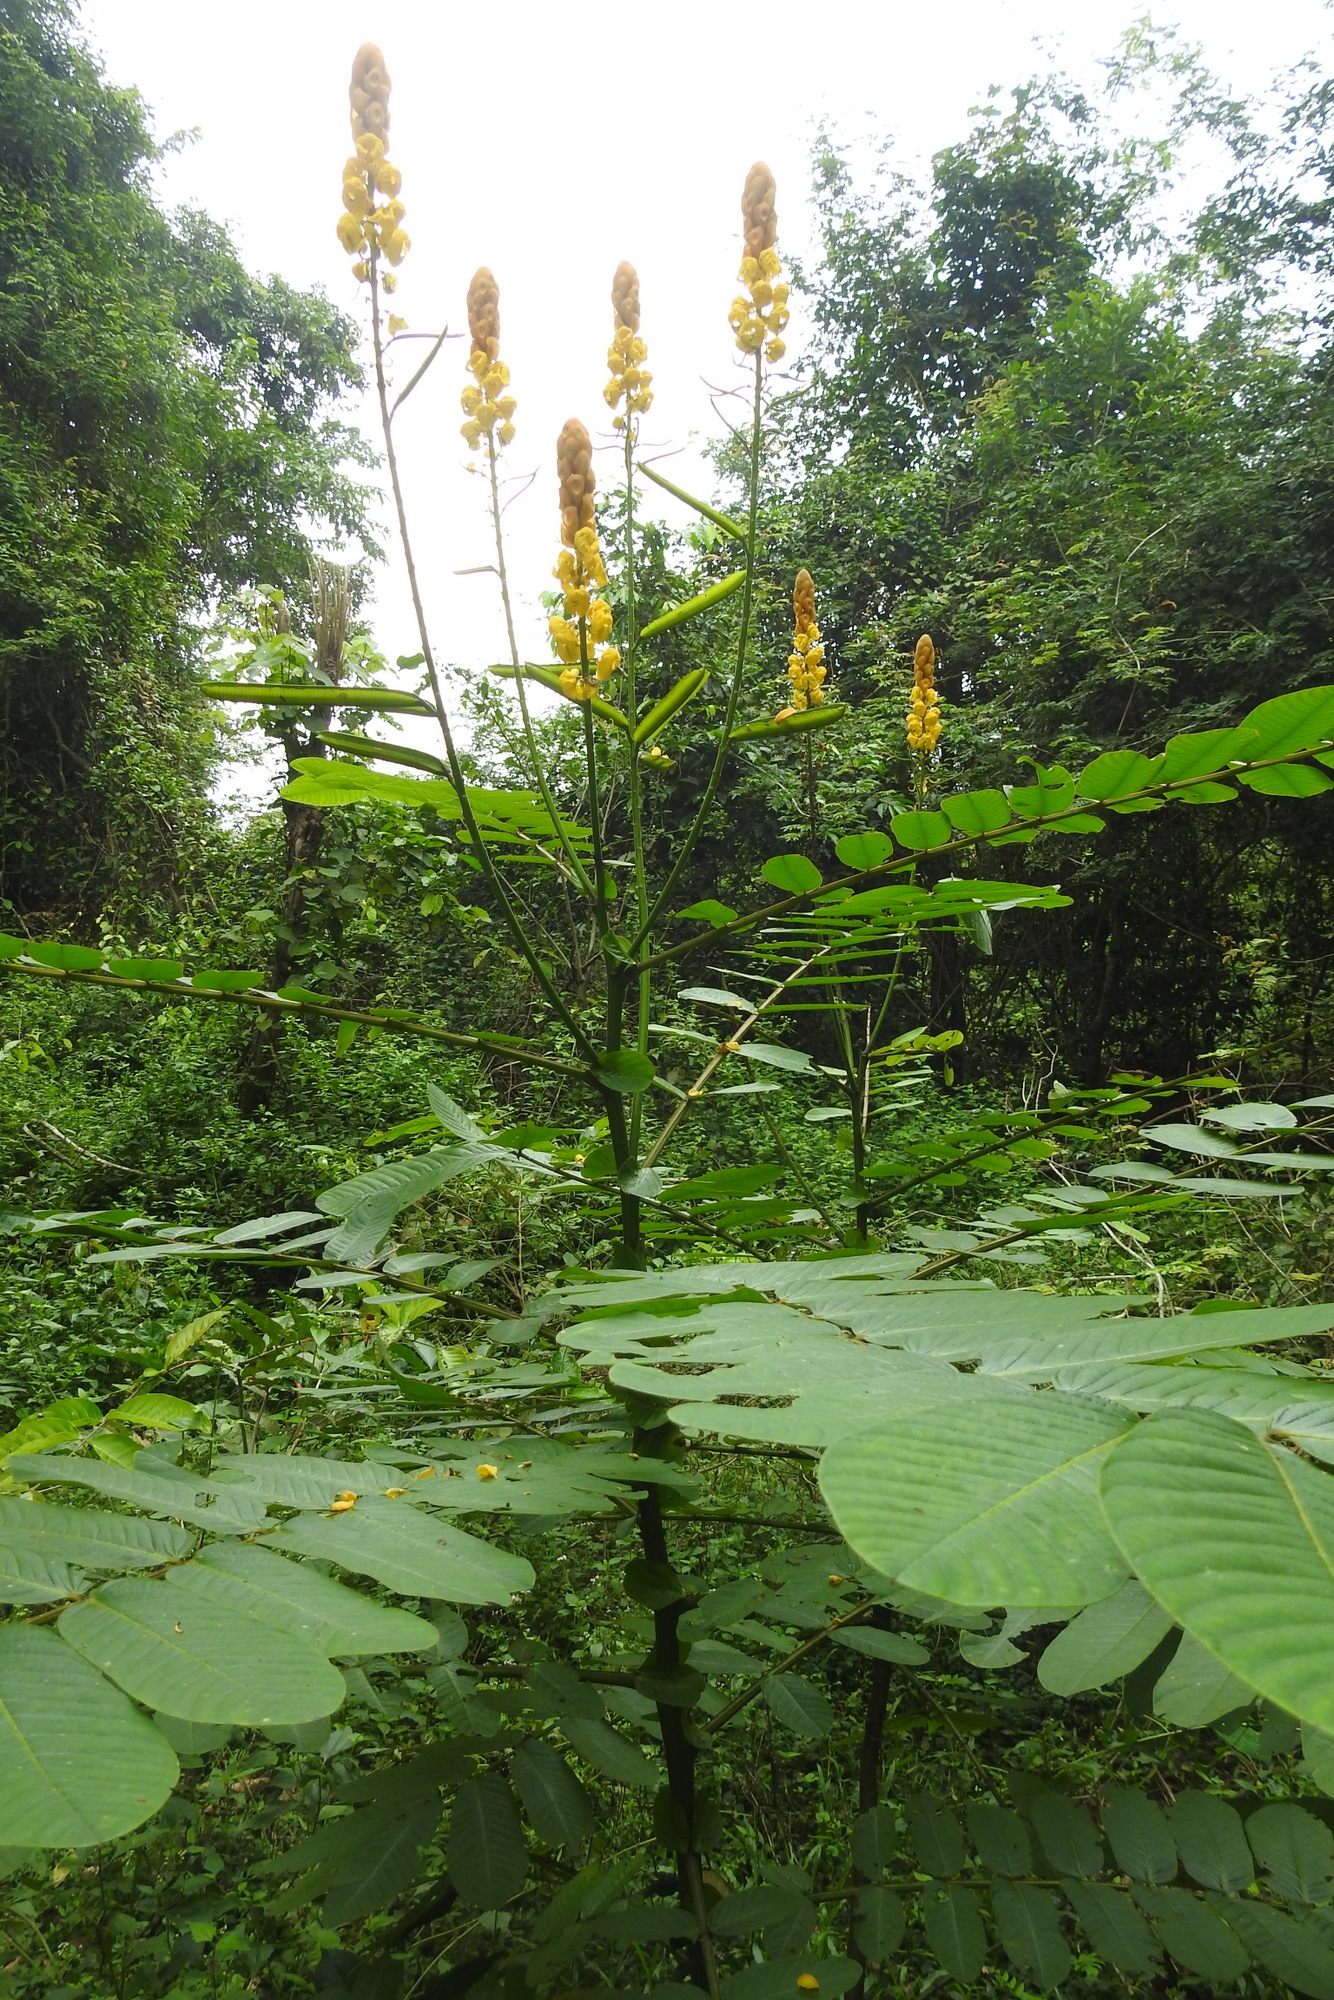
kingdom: Plantae
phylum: Tracheophyta
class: Magnoliopsida
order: Fabales
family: Fabaceae
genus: Senna
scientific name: Senna alata
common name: Emperor's candlesticks
